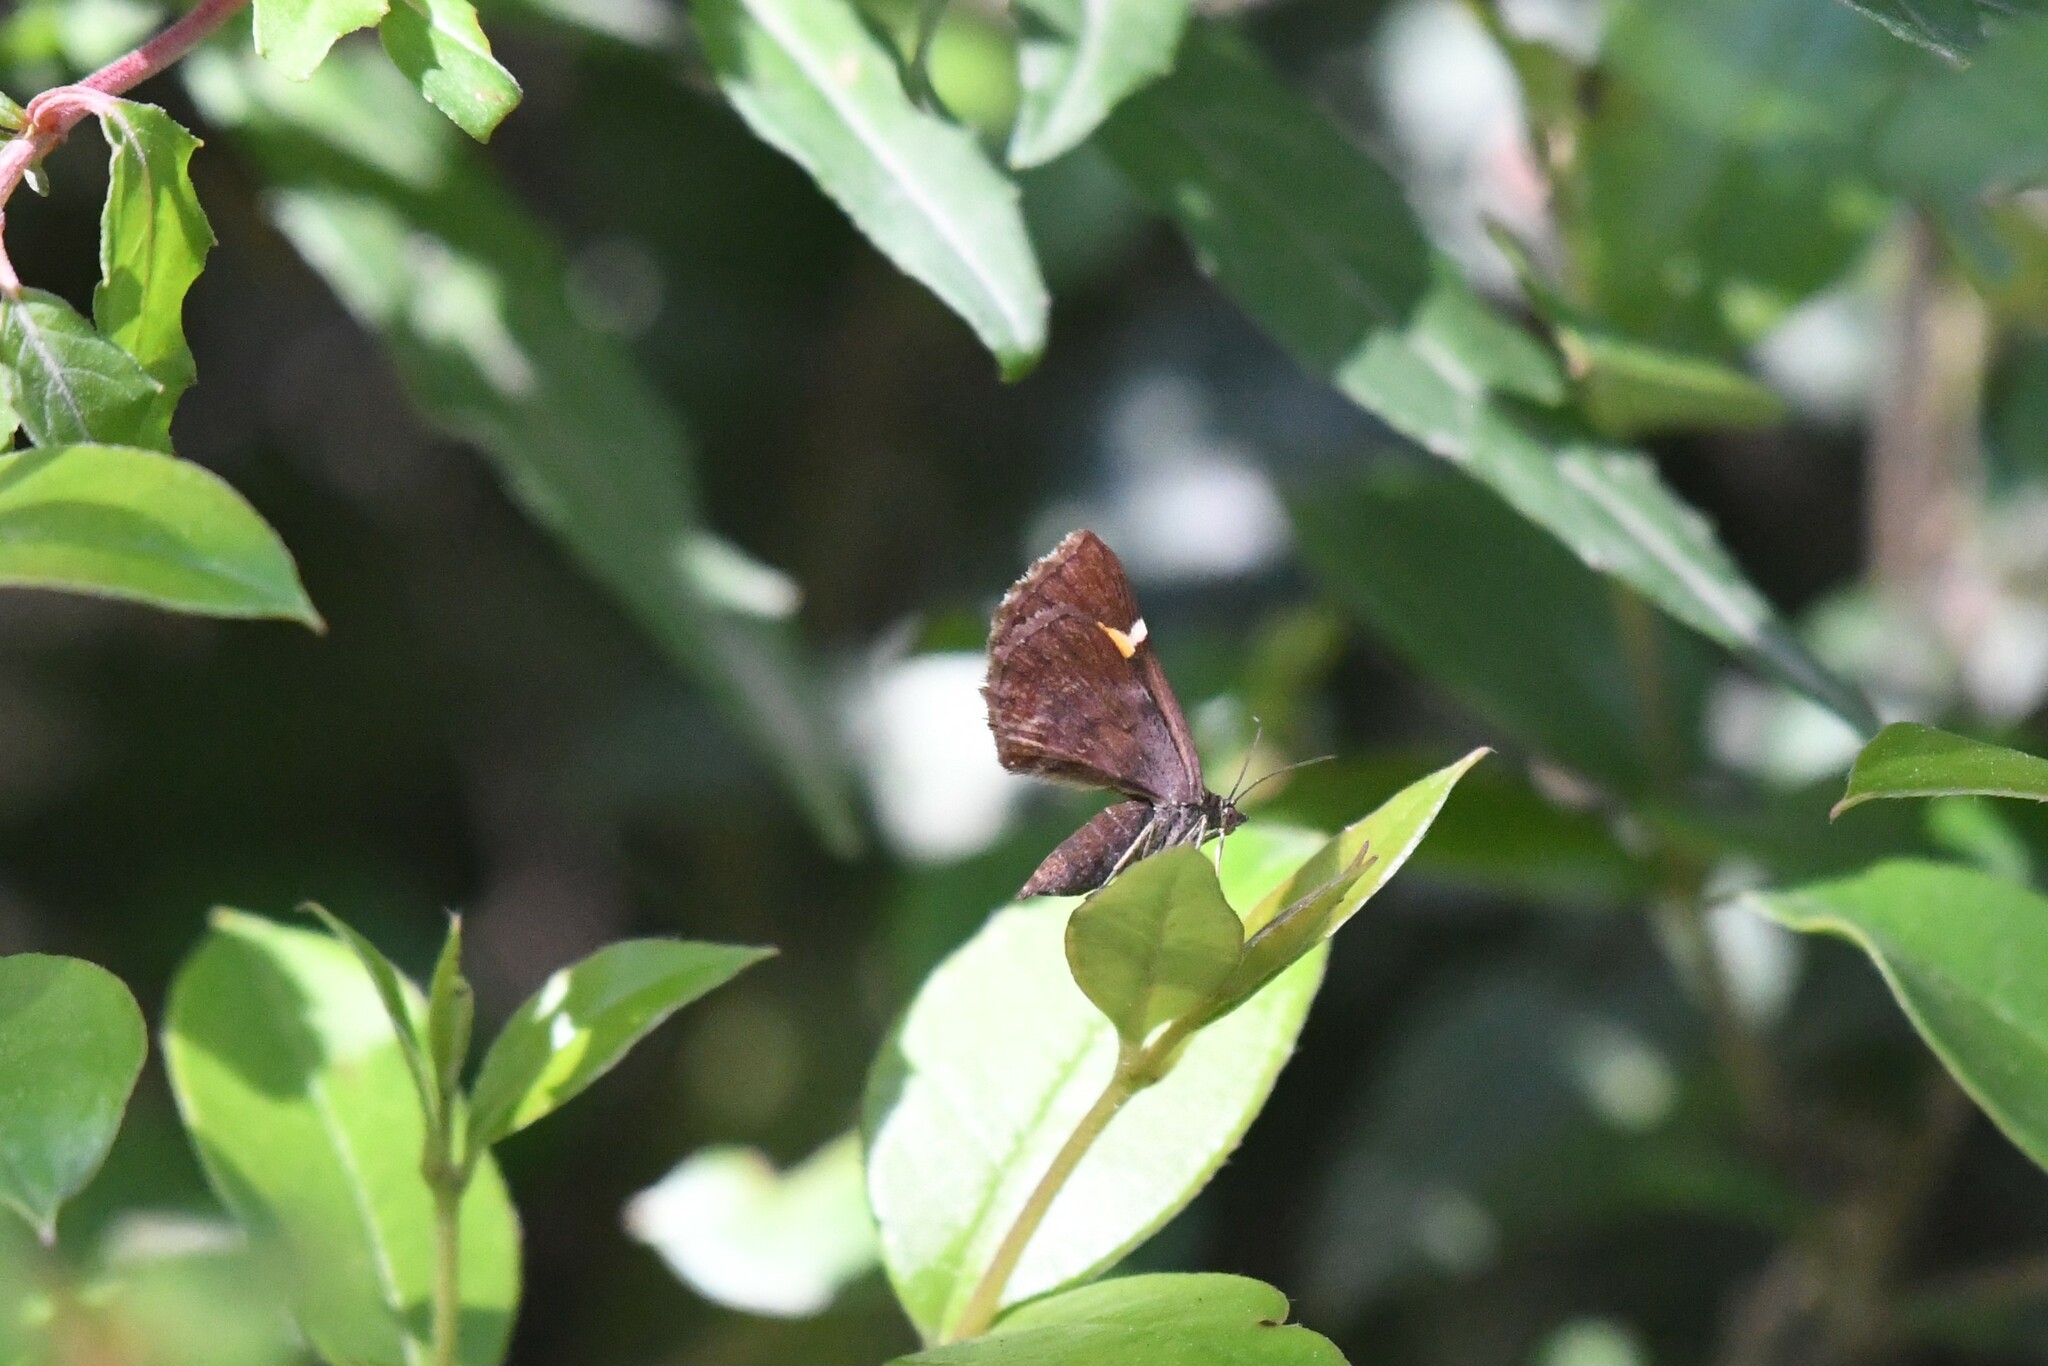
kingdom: Animalia
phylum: Arthropoda
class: Insecta
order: Lepidoptera
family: Geometridae
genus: Hagnagora
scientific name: Hagnagora vittata
